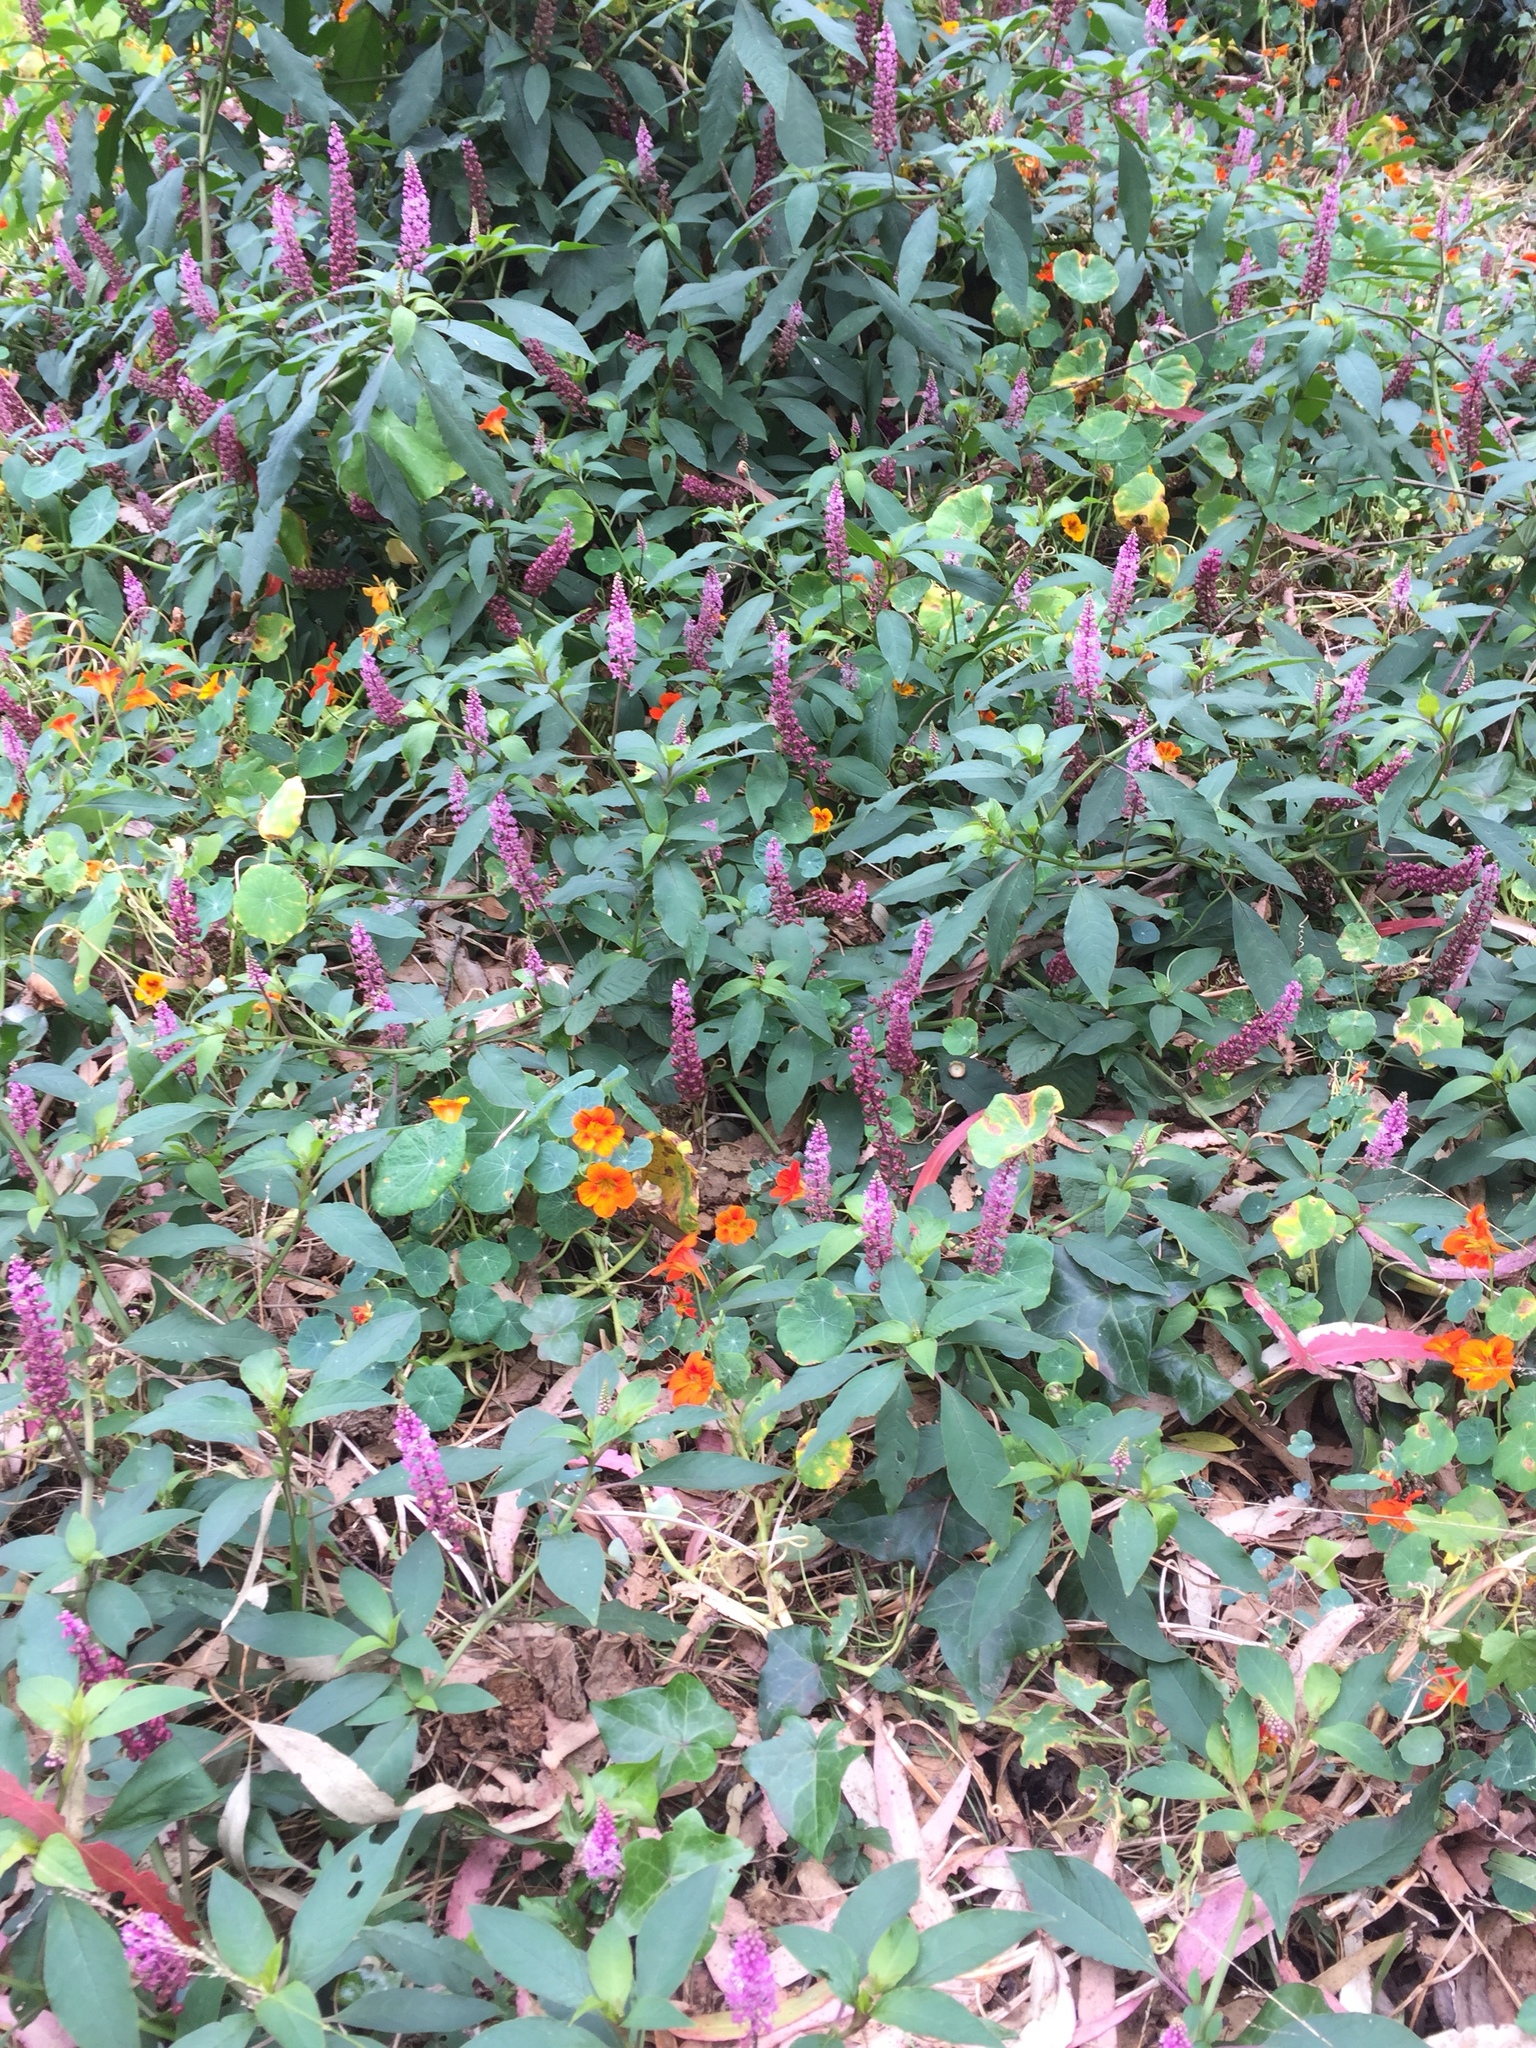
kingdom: Plantae
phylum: Tracheophyta
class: Magnoliopsida
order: Caryophyllales
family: Phytolaccaceae
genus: Phytolacca
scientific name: Phytolacca americana
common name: American pokeweed
